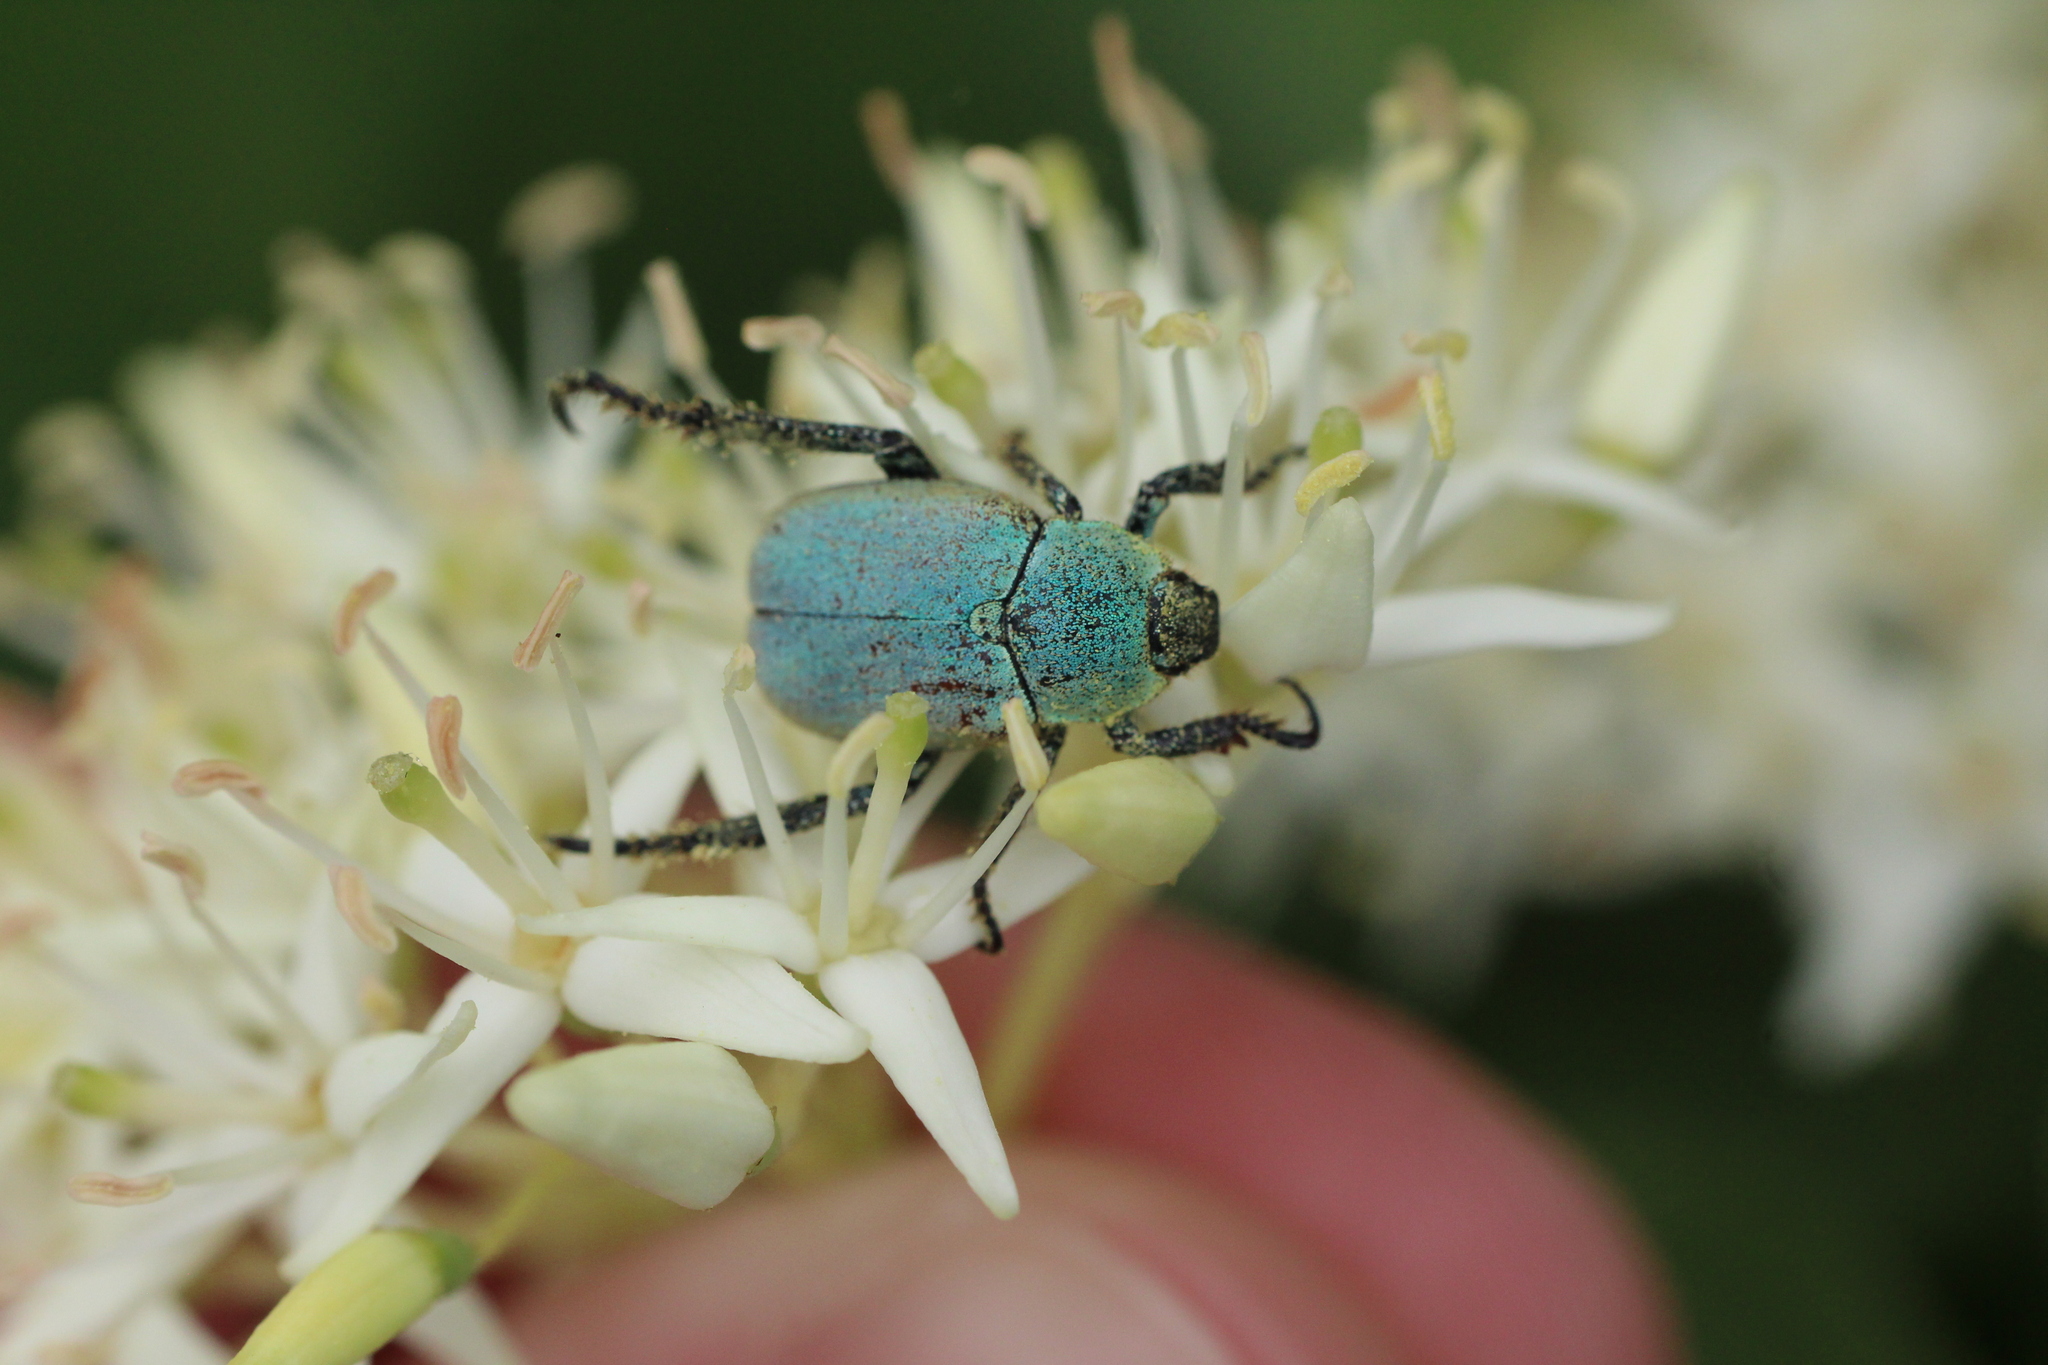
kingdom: Animalia
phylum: Arthropoda
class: Insecta
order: Coleoptera
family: Scarabaeidae
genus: Hoplia
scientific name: Hoplia argentea
